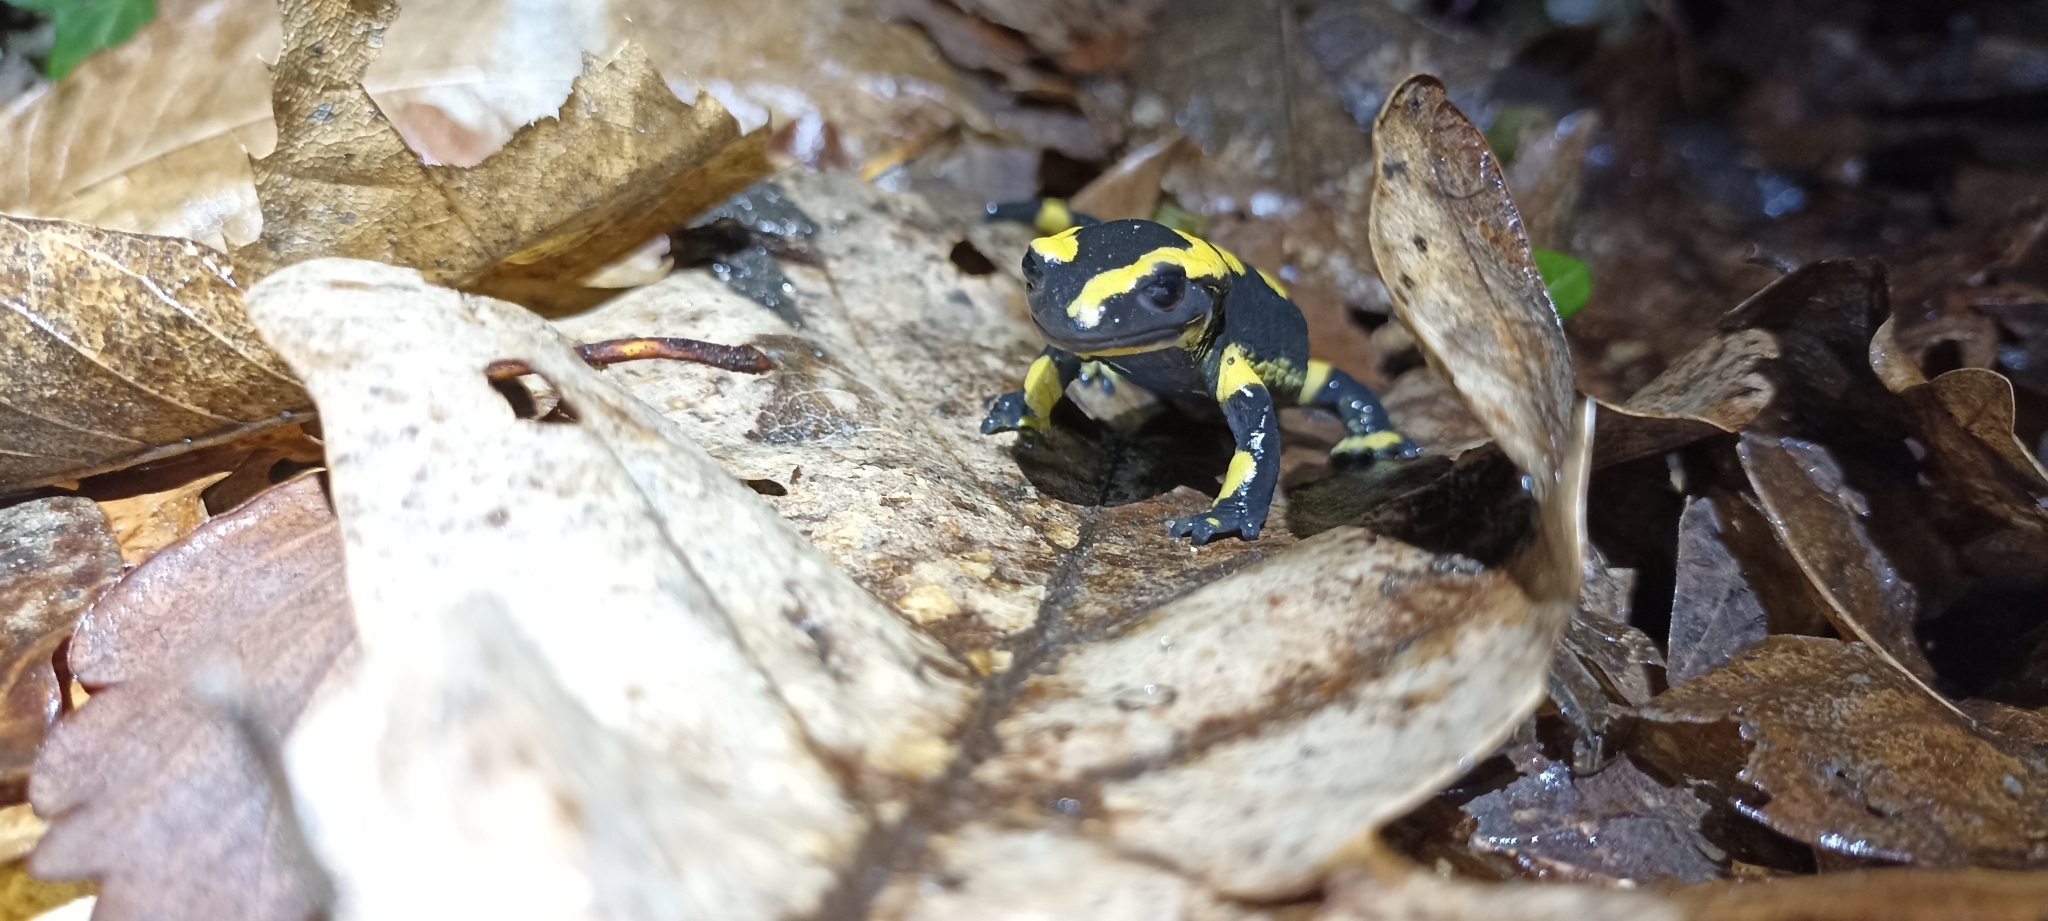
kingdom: Animalia
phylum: Chordata
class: Amphibia
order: Caudata
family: Salamandridae
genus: Salamandra
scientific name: Salamandra salamandra
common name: Fire salamander
